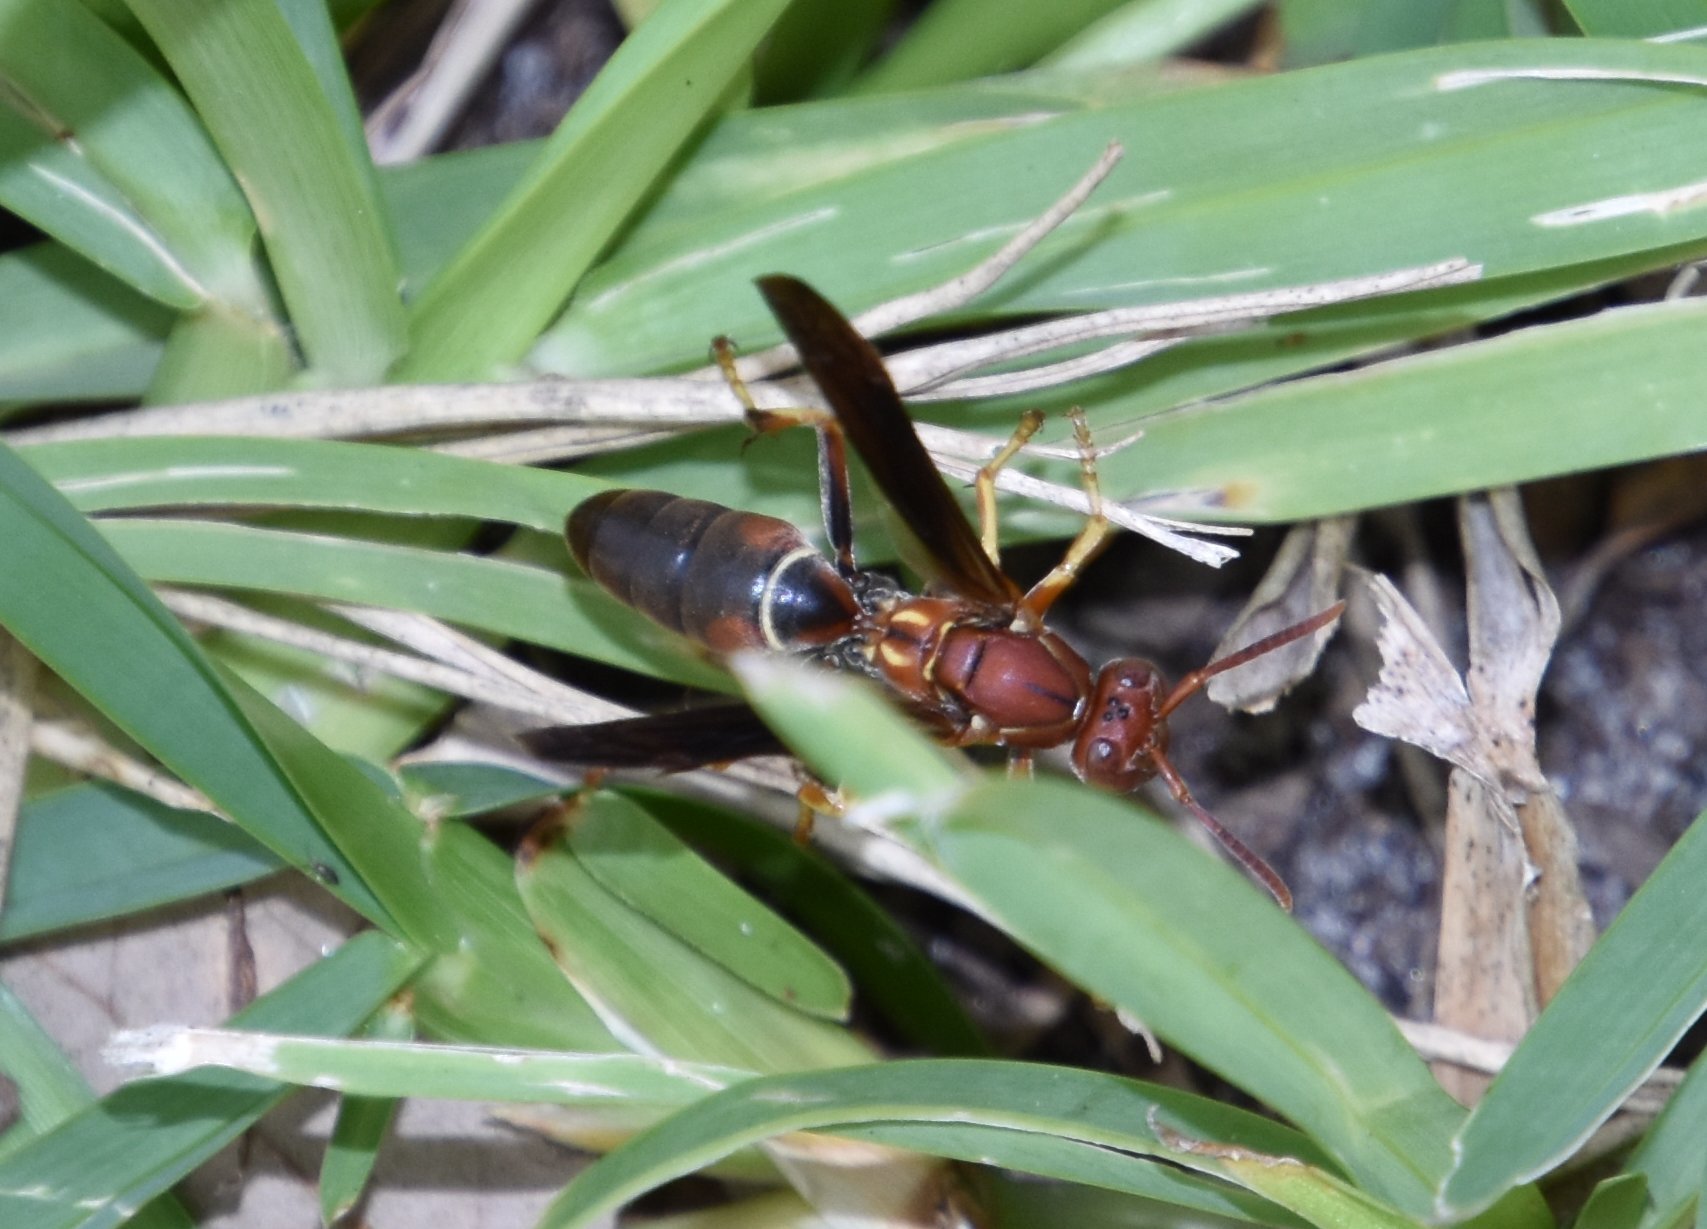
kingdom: Animalia
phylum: Arthropoda
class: Insecta
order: Hymenoptera
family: Eumenidae
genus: Polistes
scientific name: Polistes fuscatus
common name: Dark paper wasp
